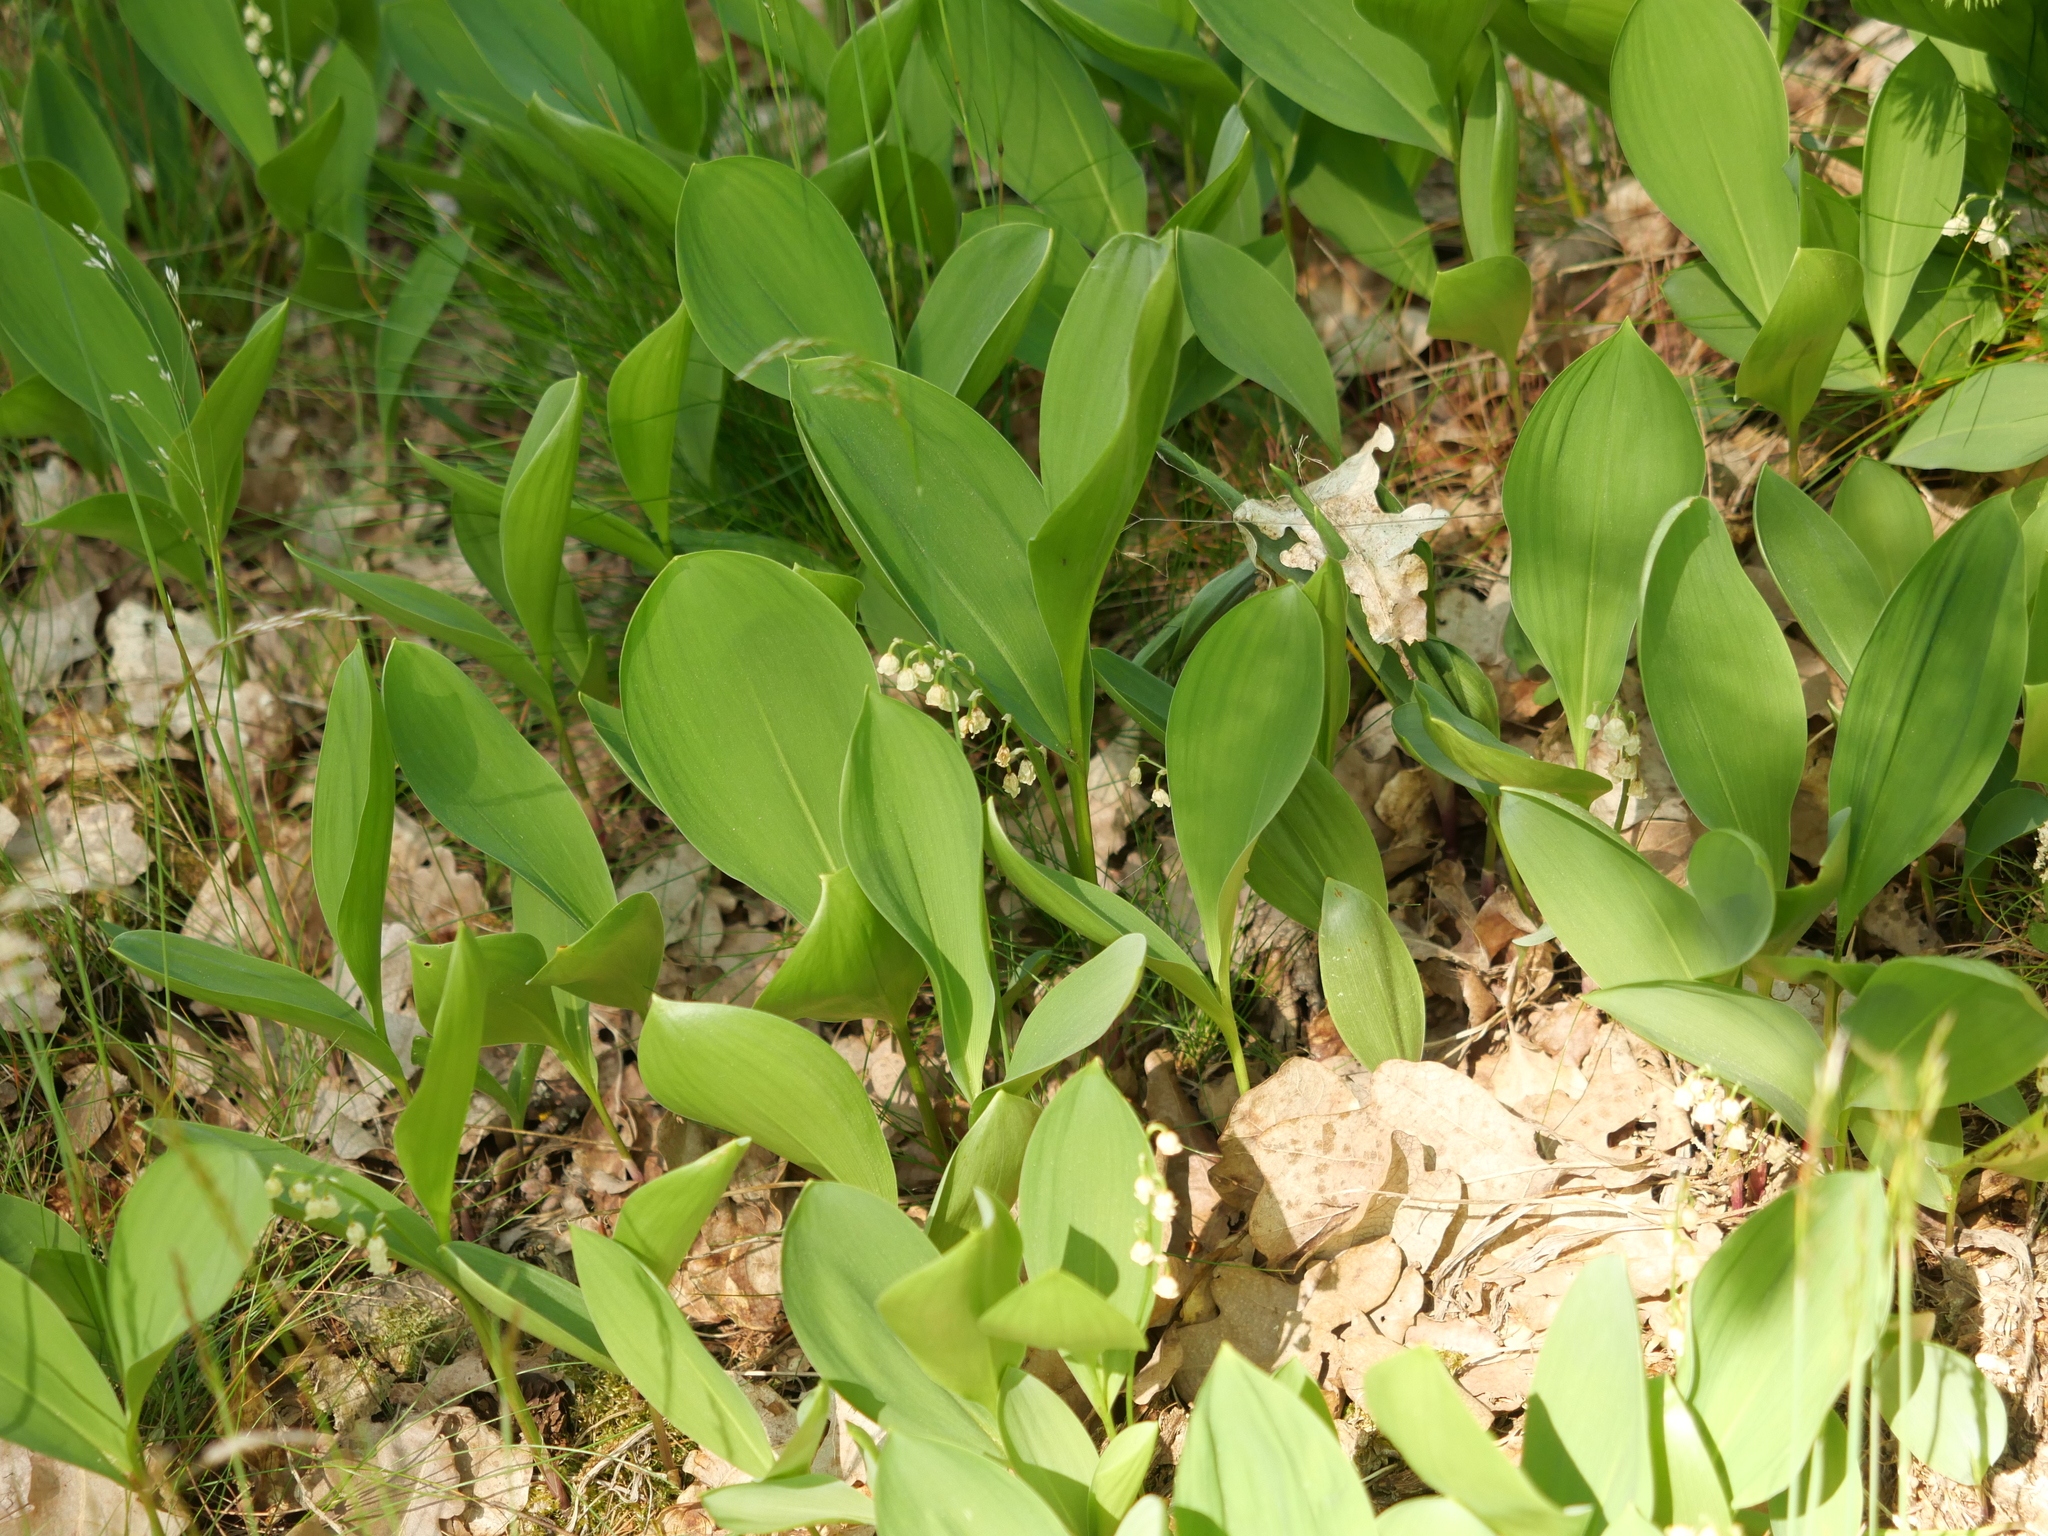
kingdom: Plantae
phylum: Tracheophyta
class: Liliopsida
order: Asparagales
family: Asparagaceae
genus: Convallaria
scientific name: Convallaria majalis
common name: Lily-of-the-valley
